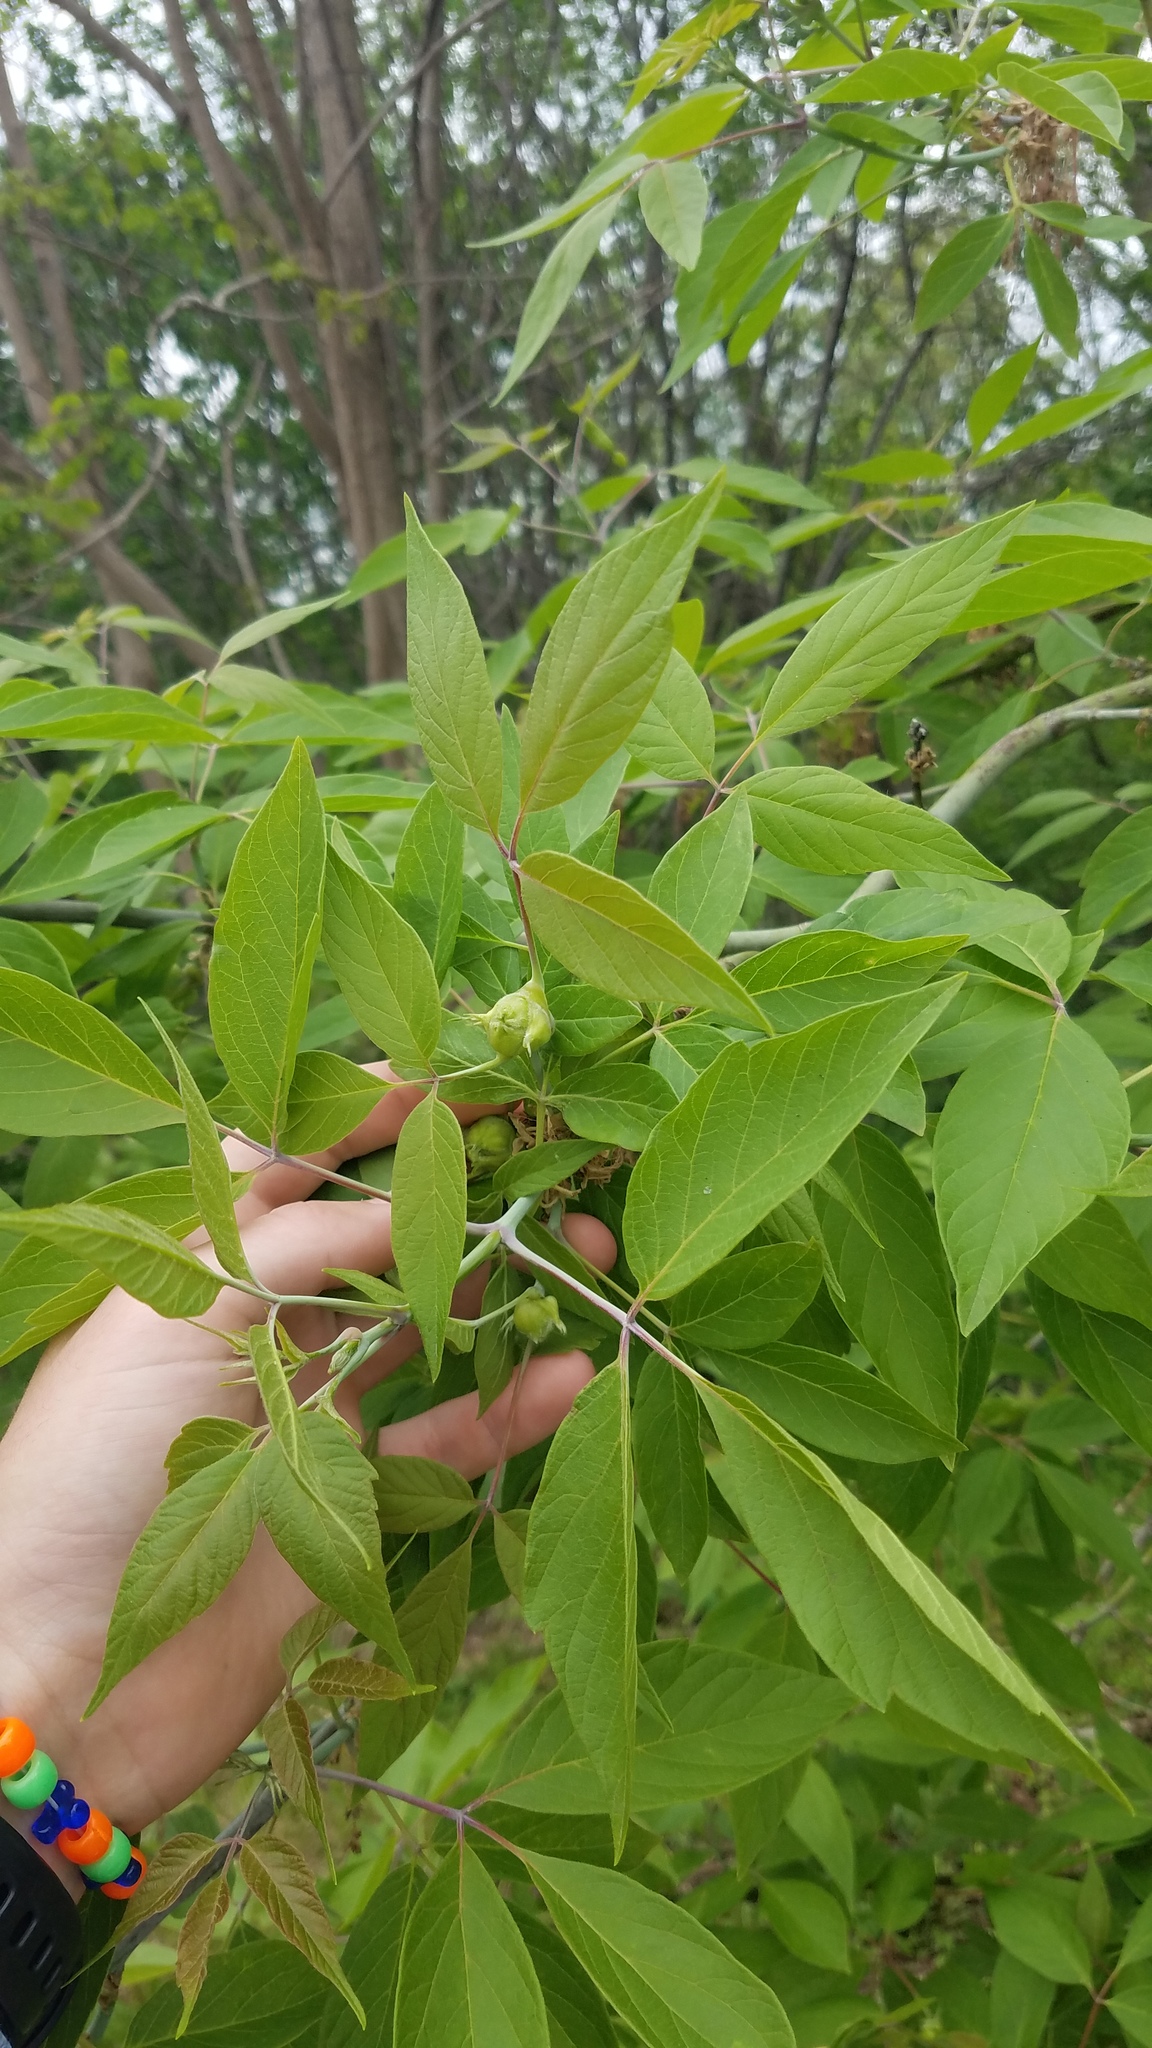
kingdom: Plantae
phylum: Tracheophyta
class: Magnoliopsida
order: Sapindales
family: Sapindaceae
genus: Acer
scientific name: Acer negundo
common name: Ashleaf maple
